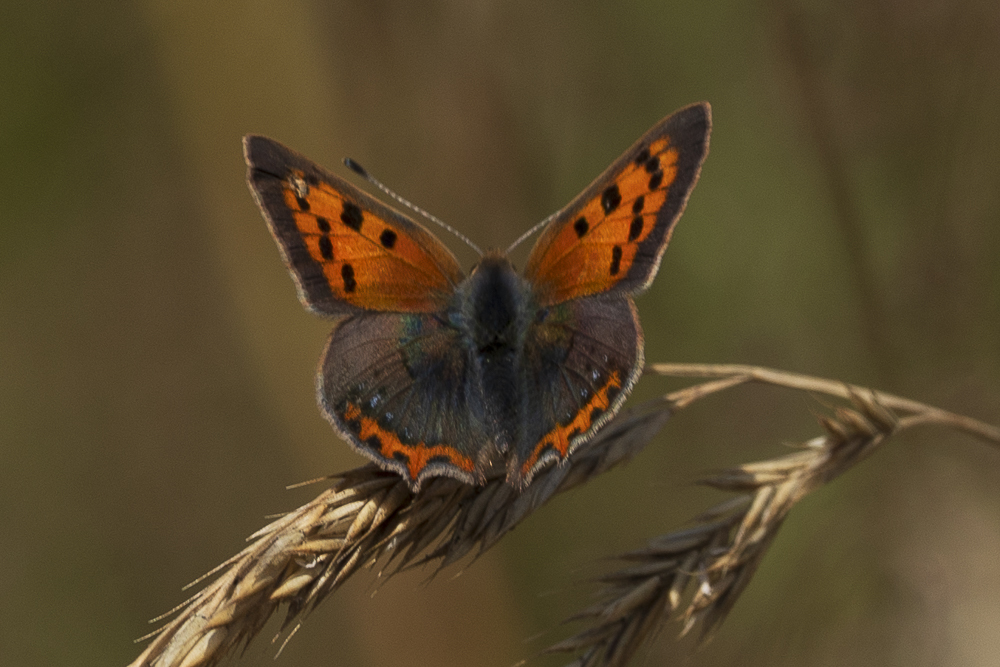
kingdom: Animalia
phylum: Arthropoda
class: Insecta
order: Lepidoptera
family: Lycaenidae
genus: Lycaena
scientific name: Lycaena phlaeas
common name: Small copper
